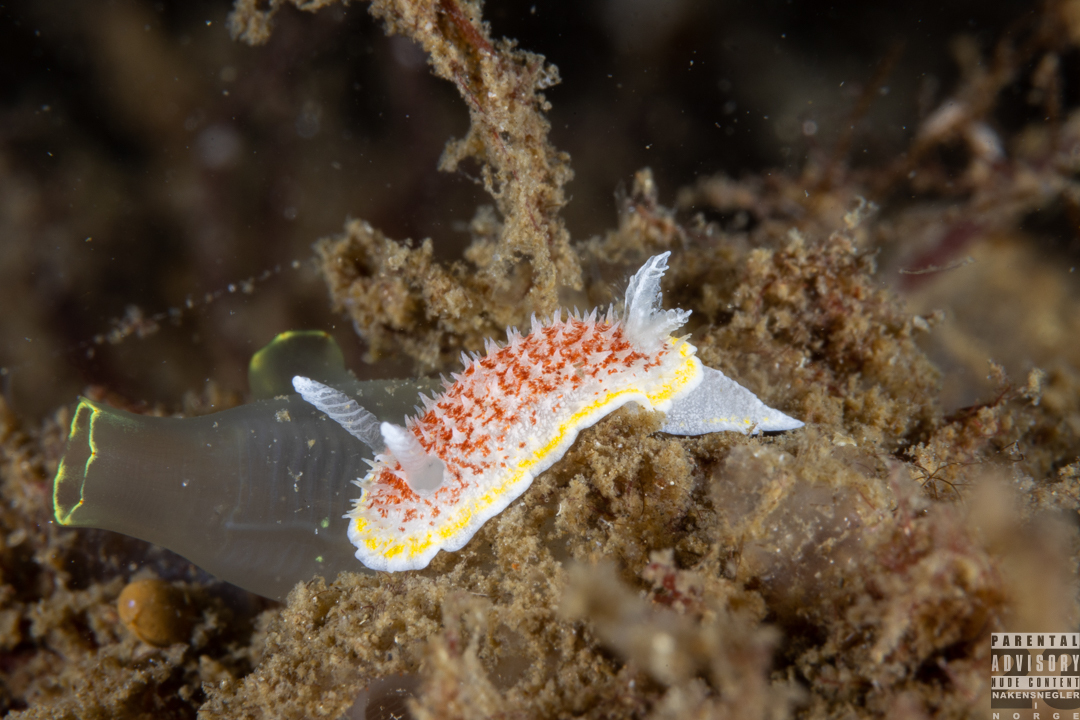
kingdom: Animalia
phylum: Mollusca
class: Gastropoda
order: Nudibranchia
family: Calycidorididae
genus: Diaphorodoris
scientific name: Diaphorodoris luteocincta
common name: Fried egg nudibranch
